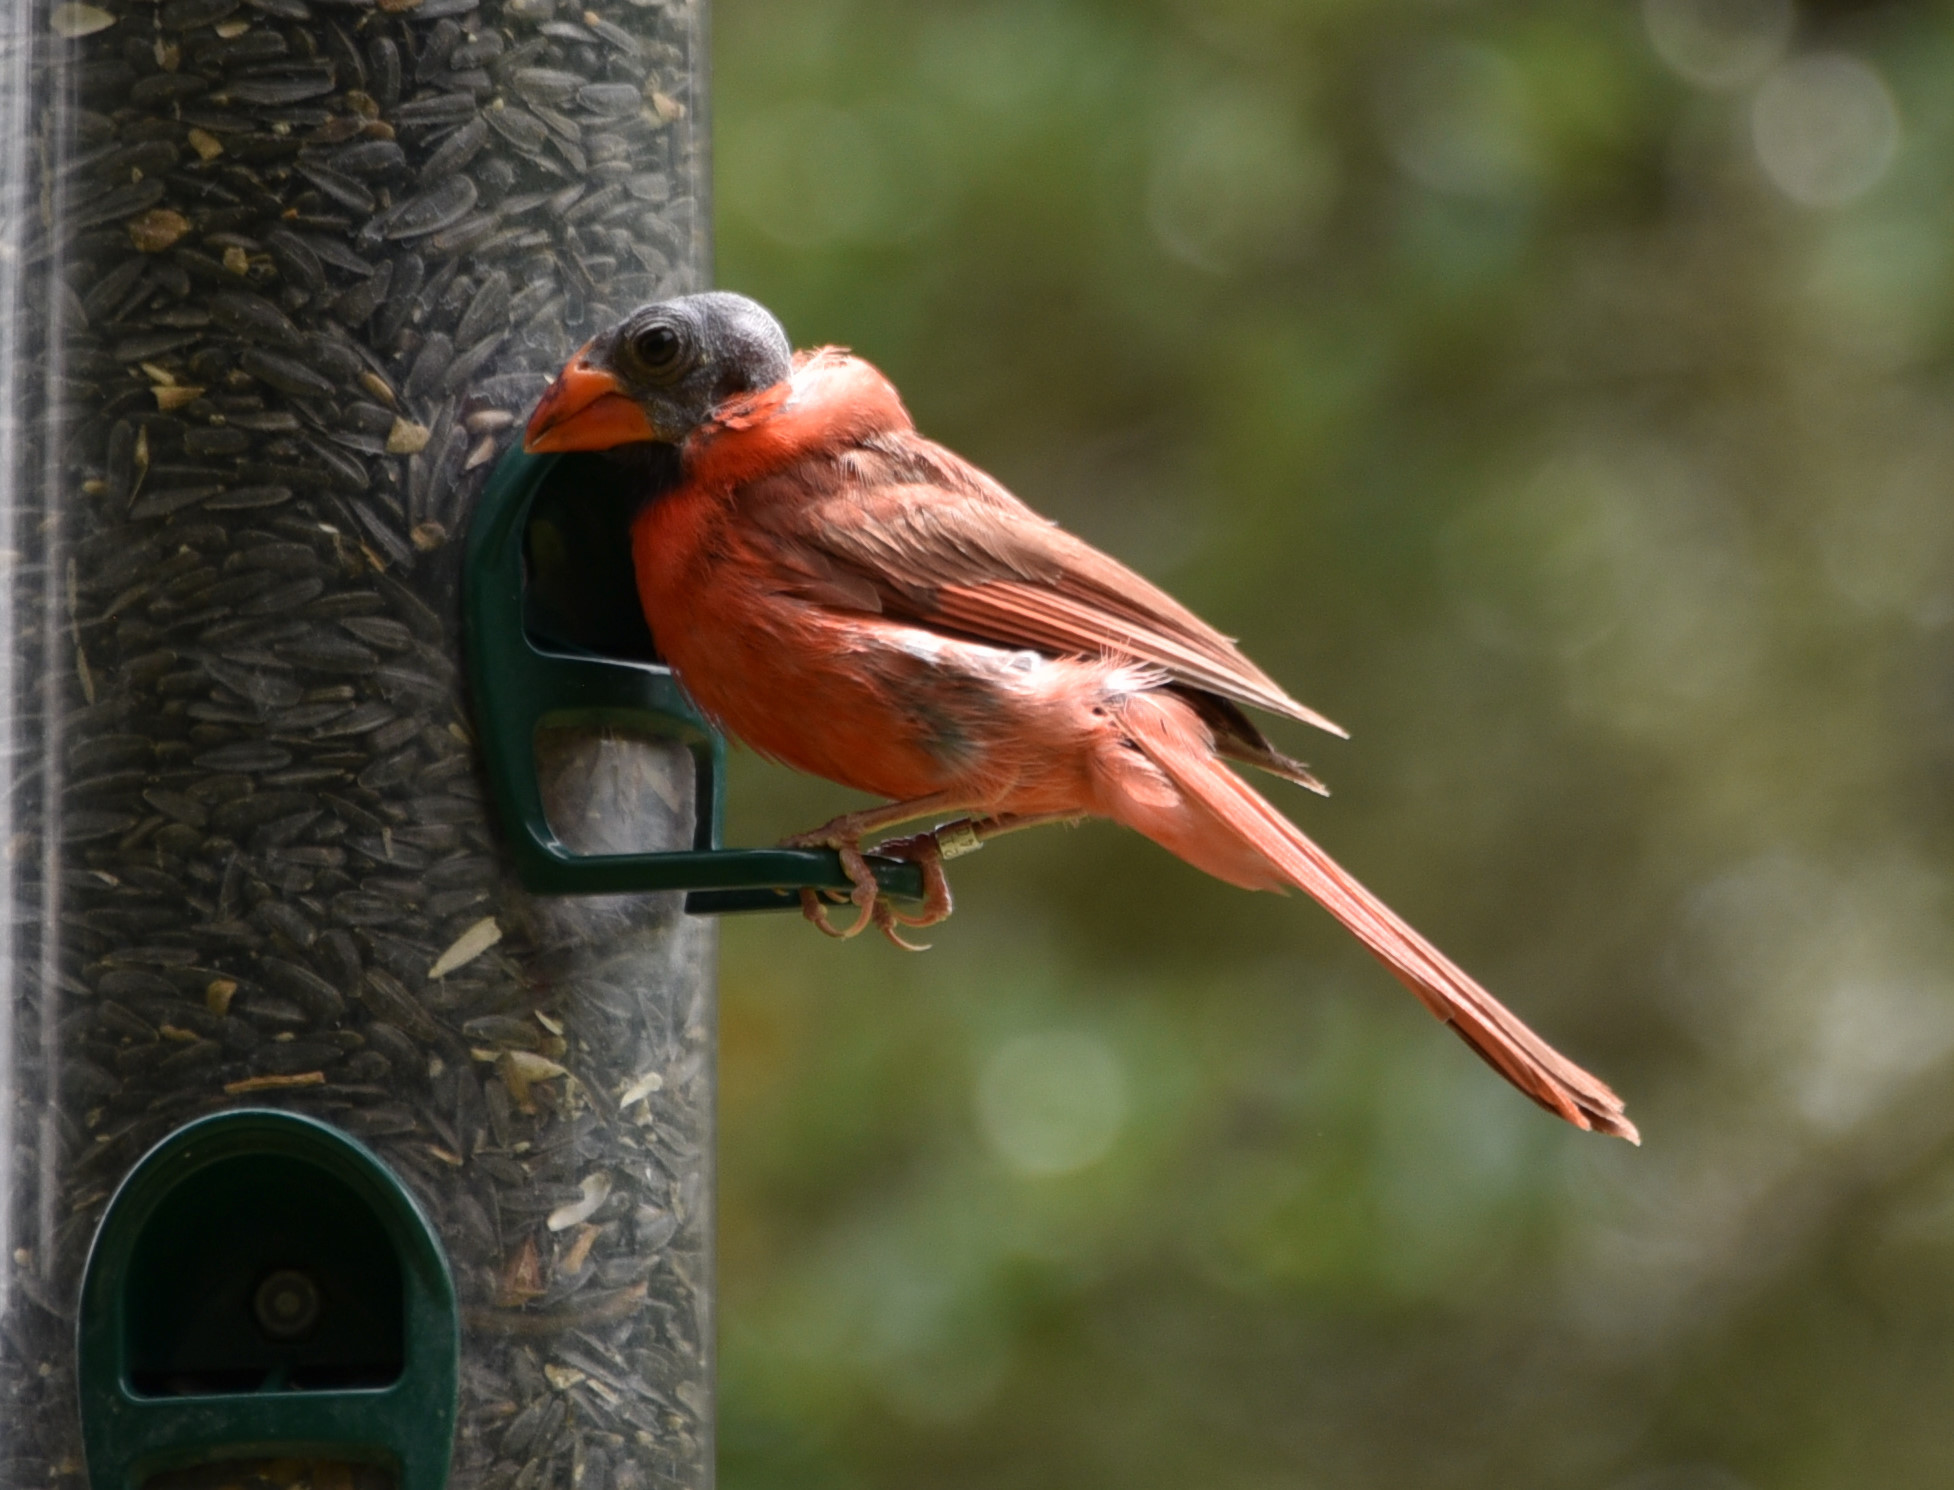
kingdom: Animalia
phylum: Chordata
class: Aves
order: Passeriformes
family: Cardinalidae
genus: Cardinalis
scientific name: Cardinalis cardinalis
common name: Northern cardinal
